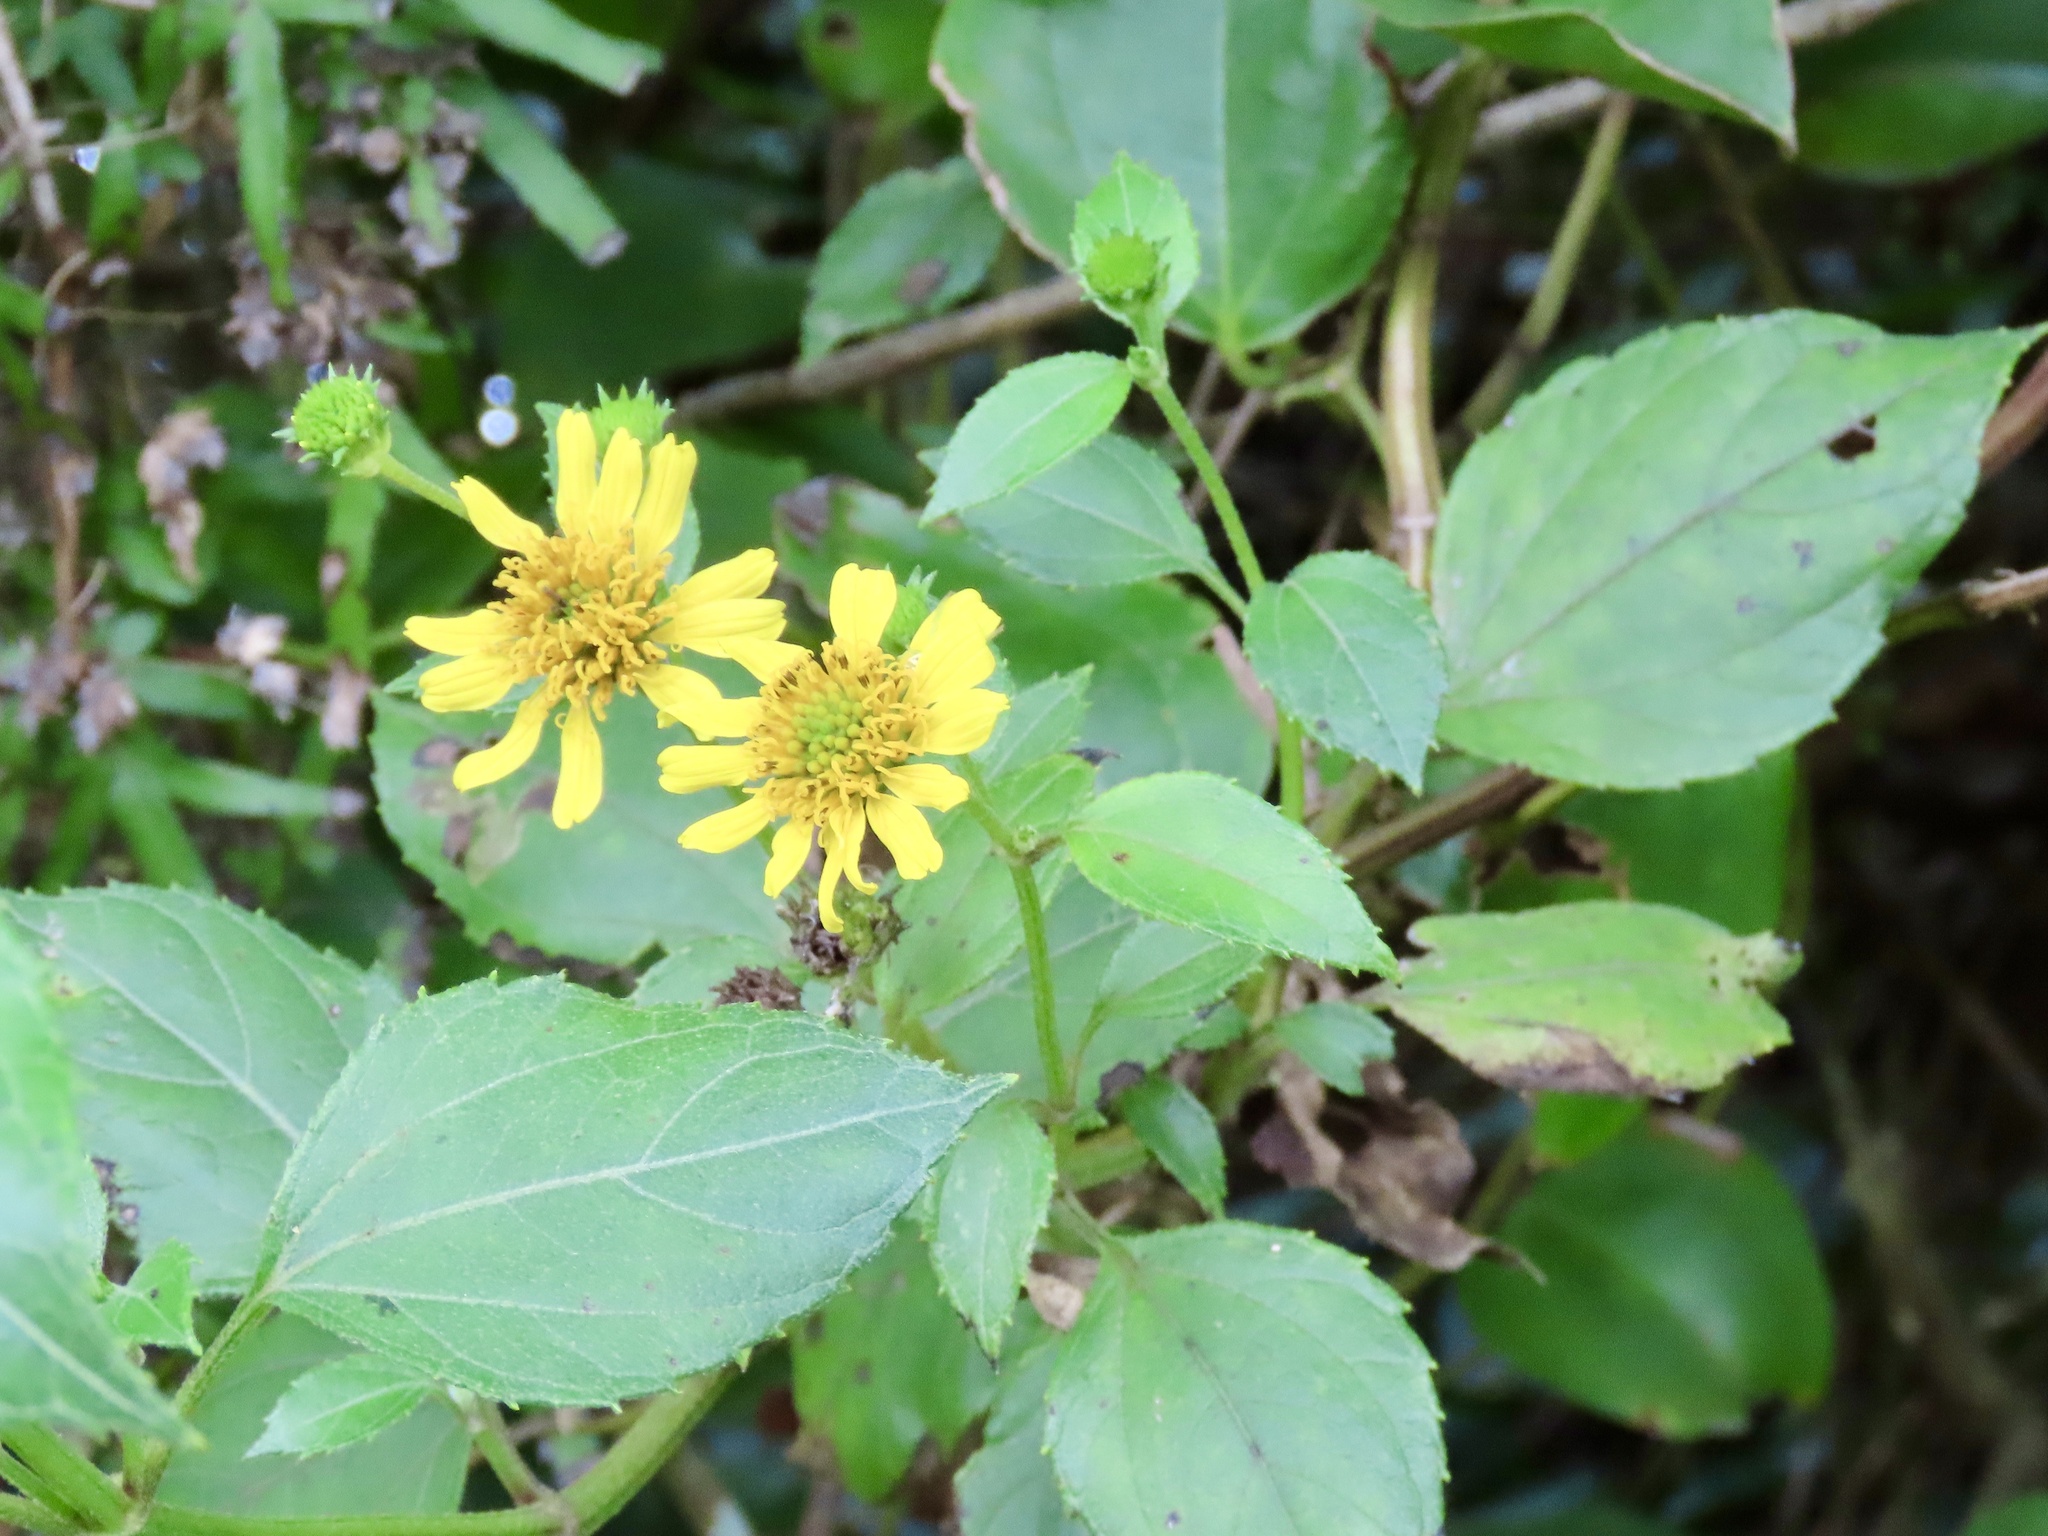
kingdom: Plantae
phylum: Tracheophyta
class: Magnoliopsida
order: Asterales
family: Asteraceae
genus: Wollastonia
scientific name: Wollastonia biflora
